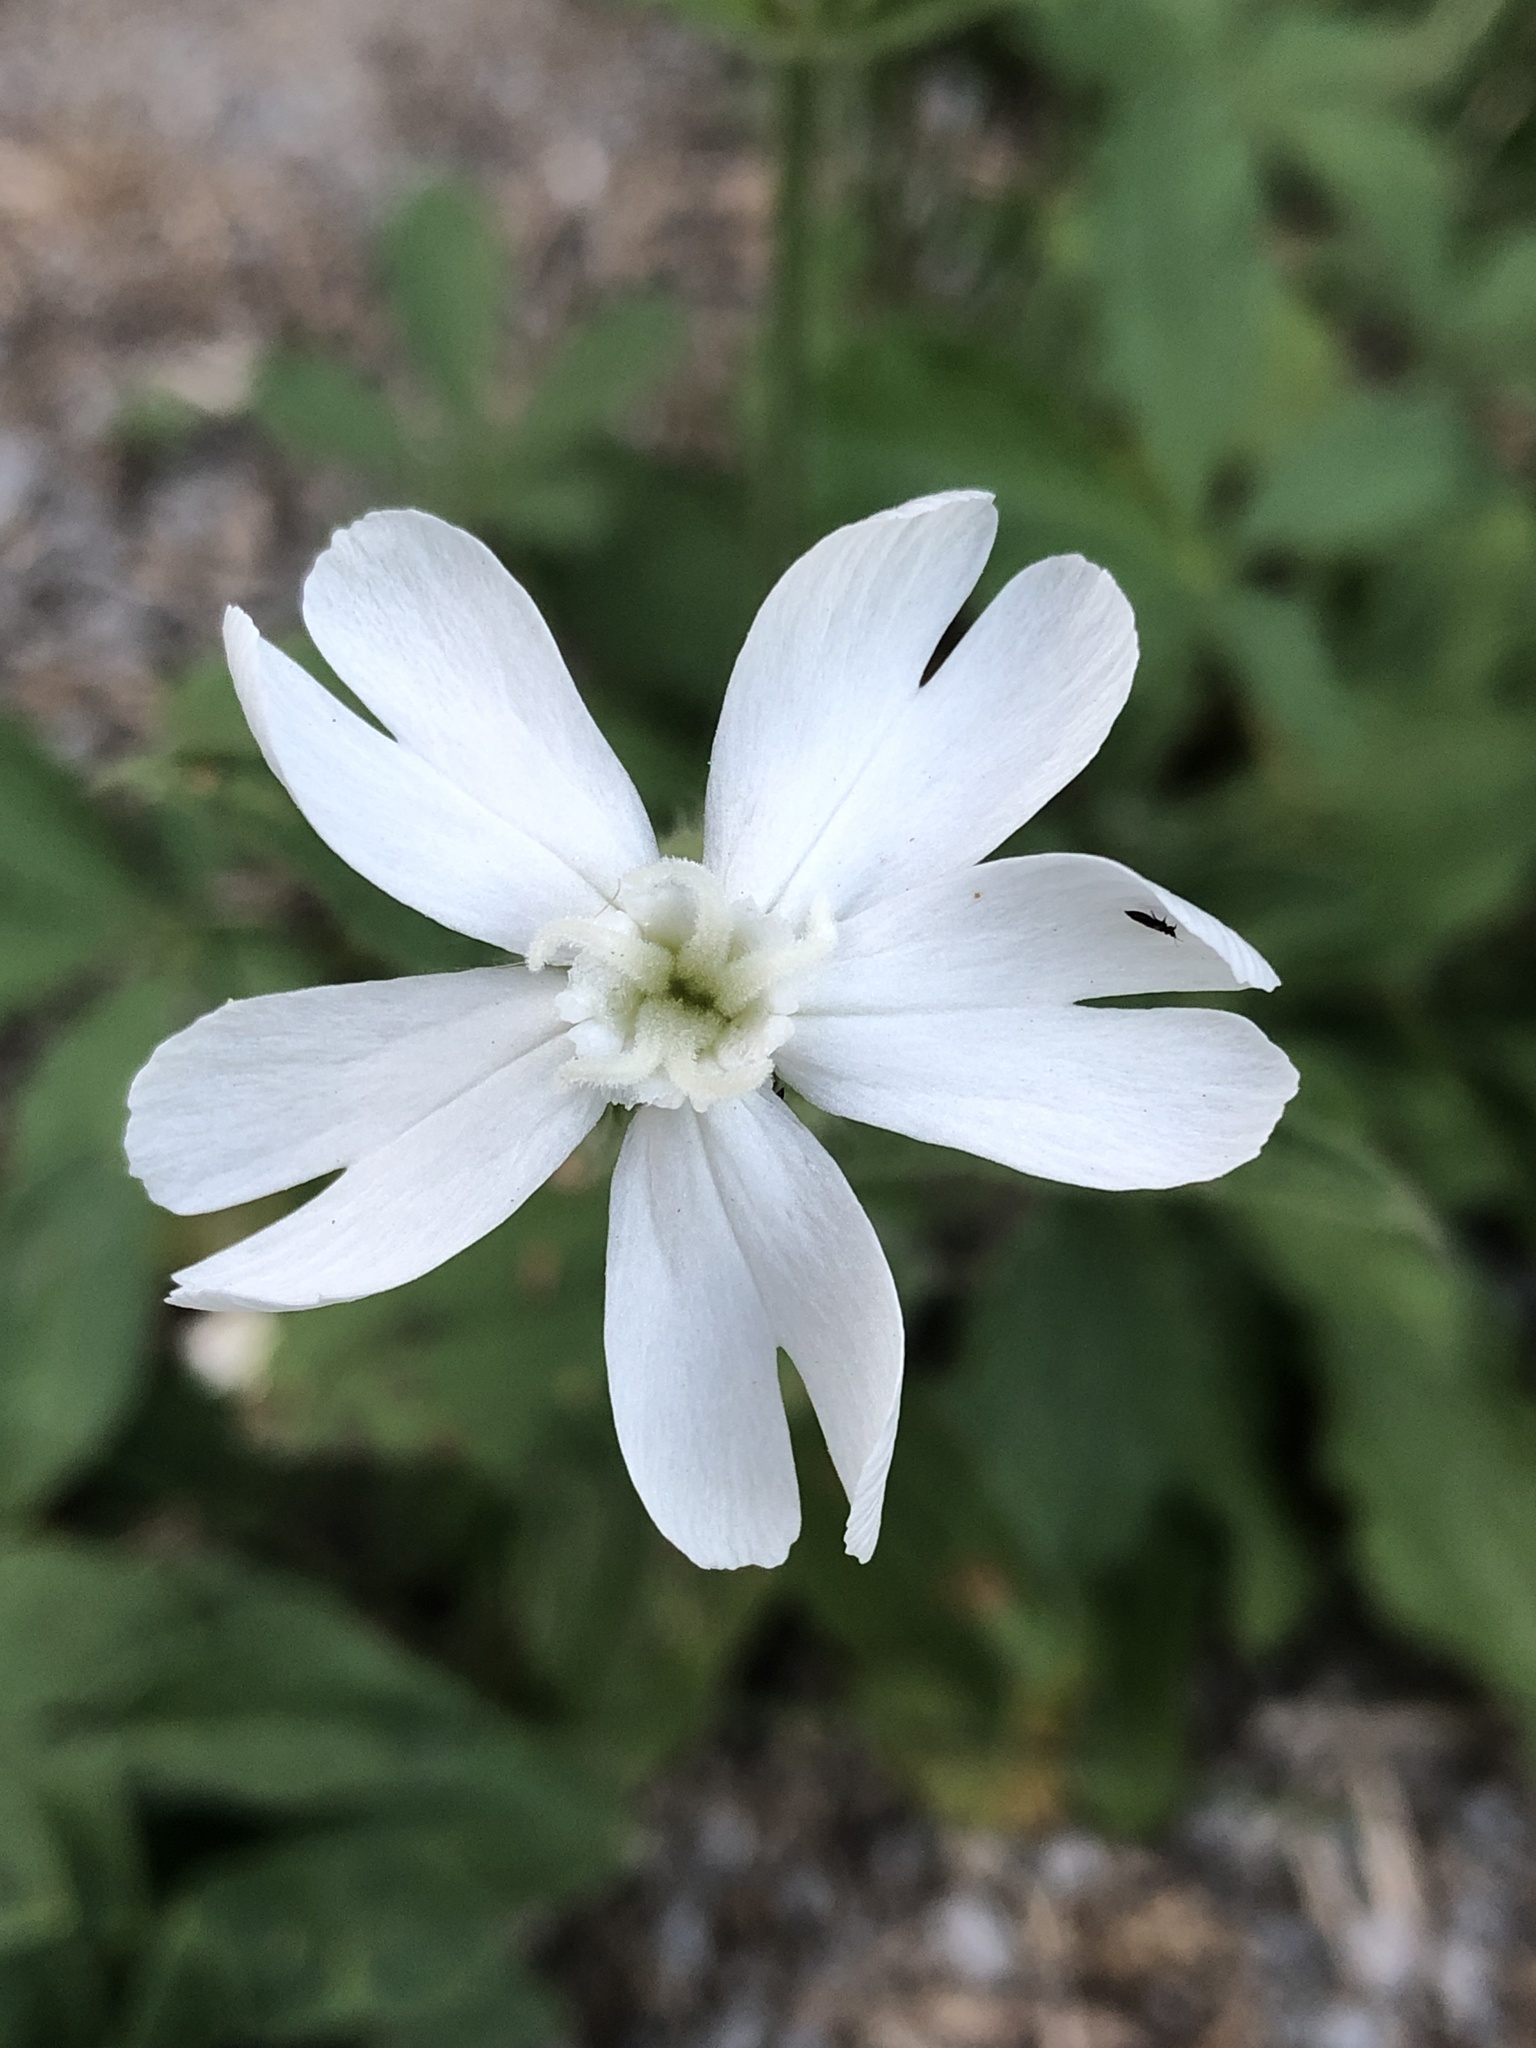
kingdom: Plantae
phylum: Tracheophyta
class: Magnoliopsida
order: Caryophyllales
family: Caryophyllaceae
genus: Silene
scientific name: Silene latifolia
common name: White campion
